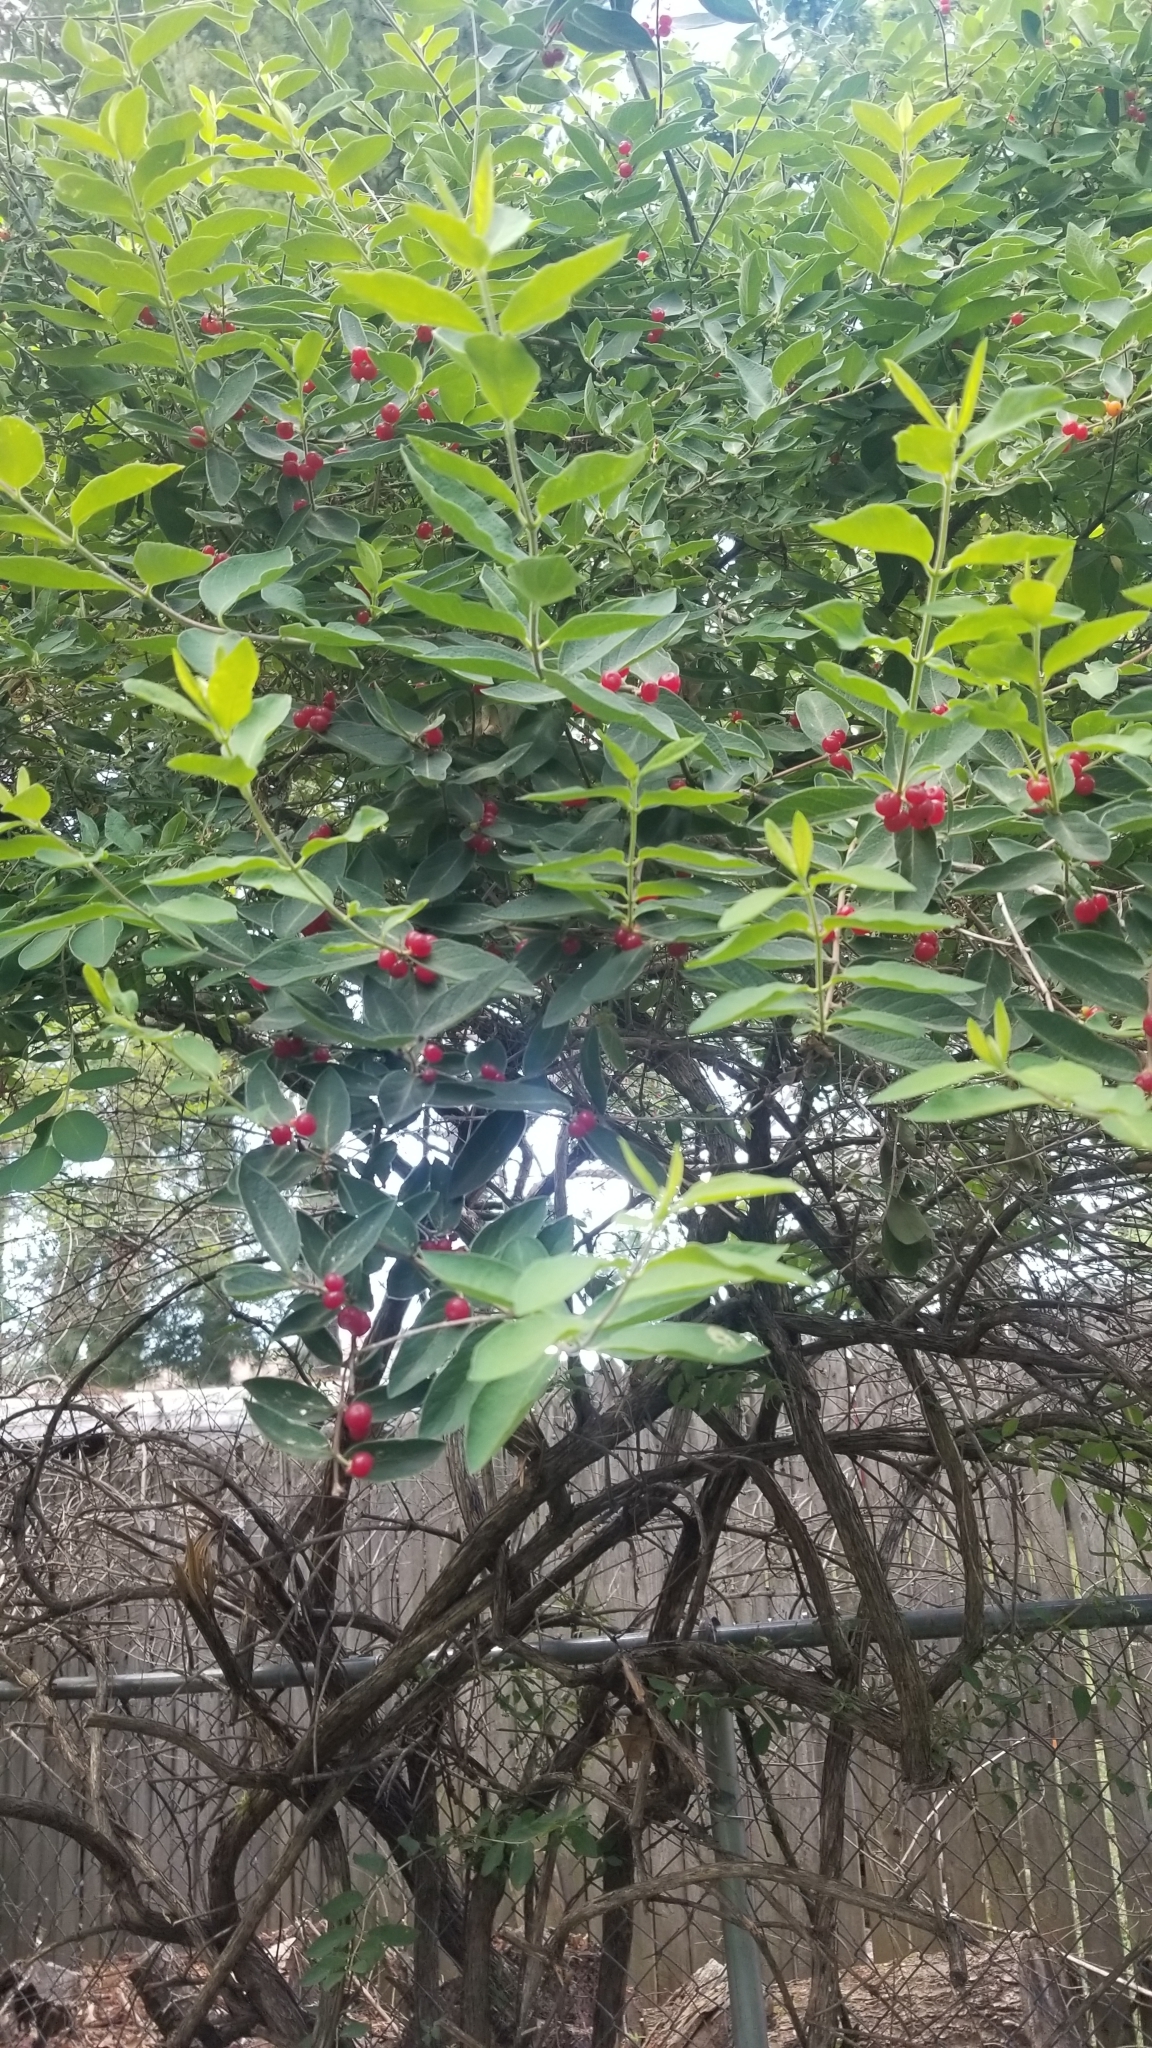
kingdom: Plantae
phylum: Tracheophyta
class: Magnoliopsida
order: Dipsacales
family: Caprifoliaceae
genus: Lonicera
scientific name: Lonicera
